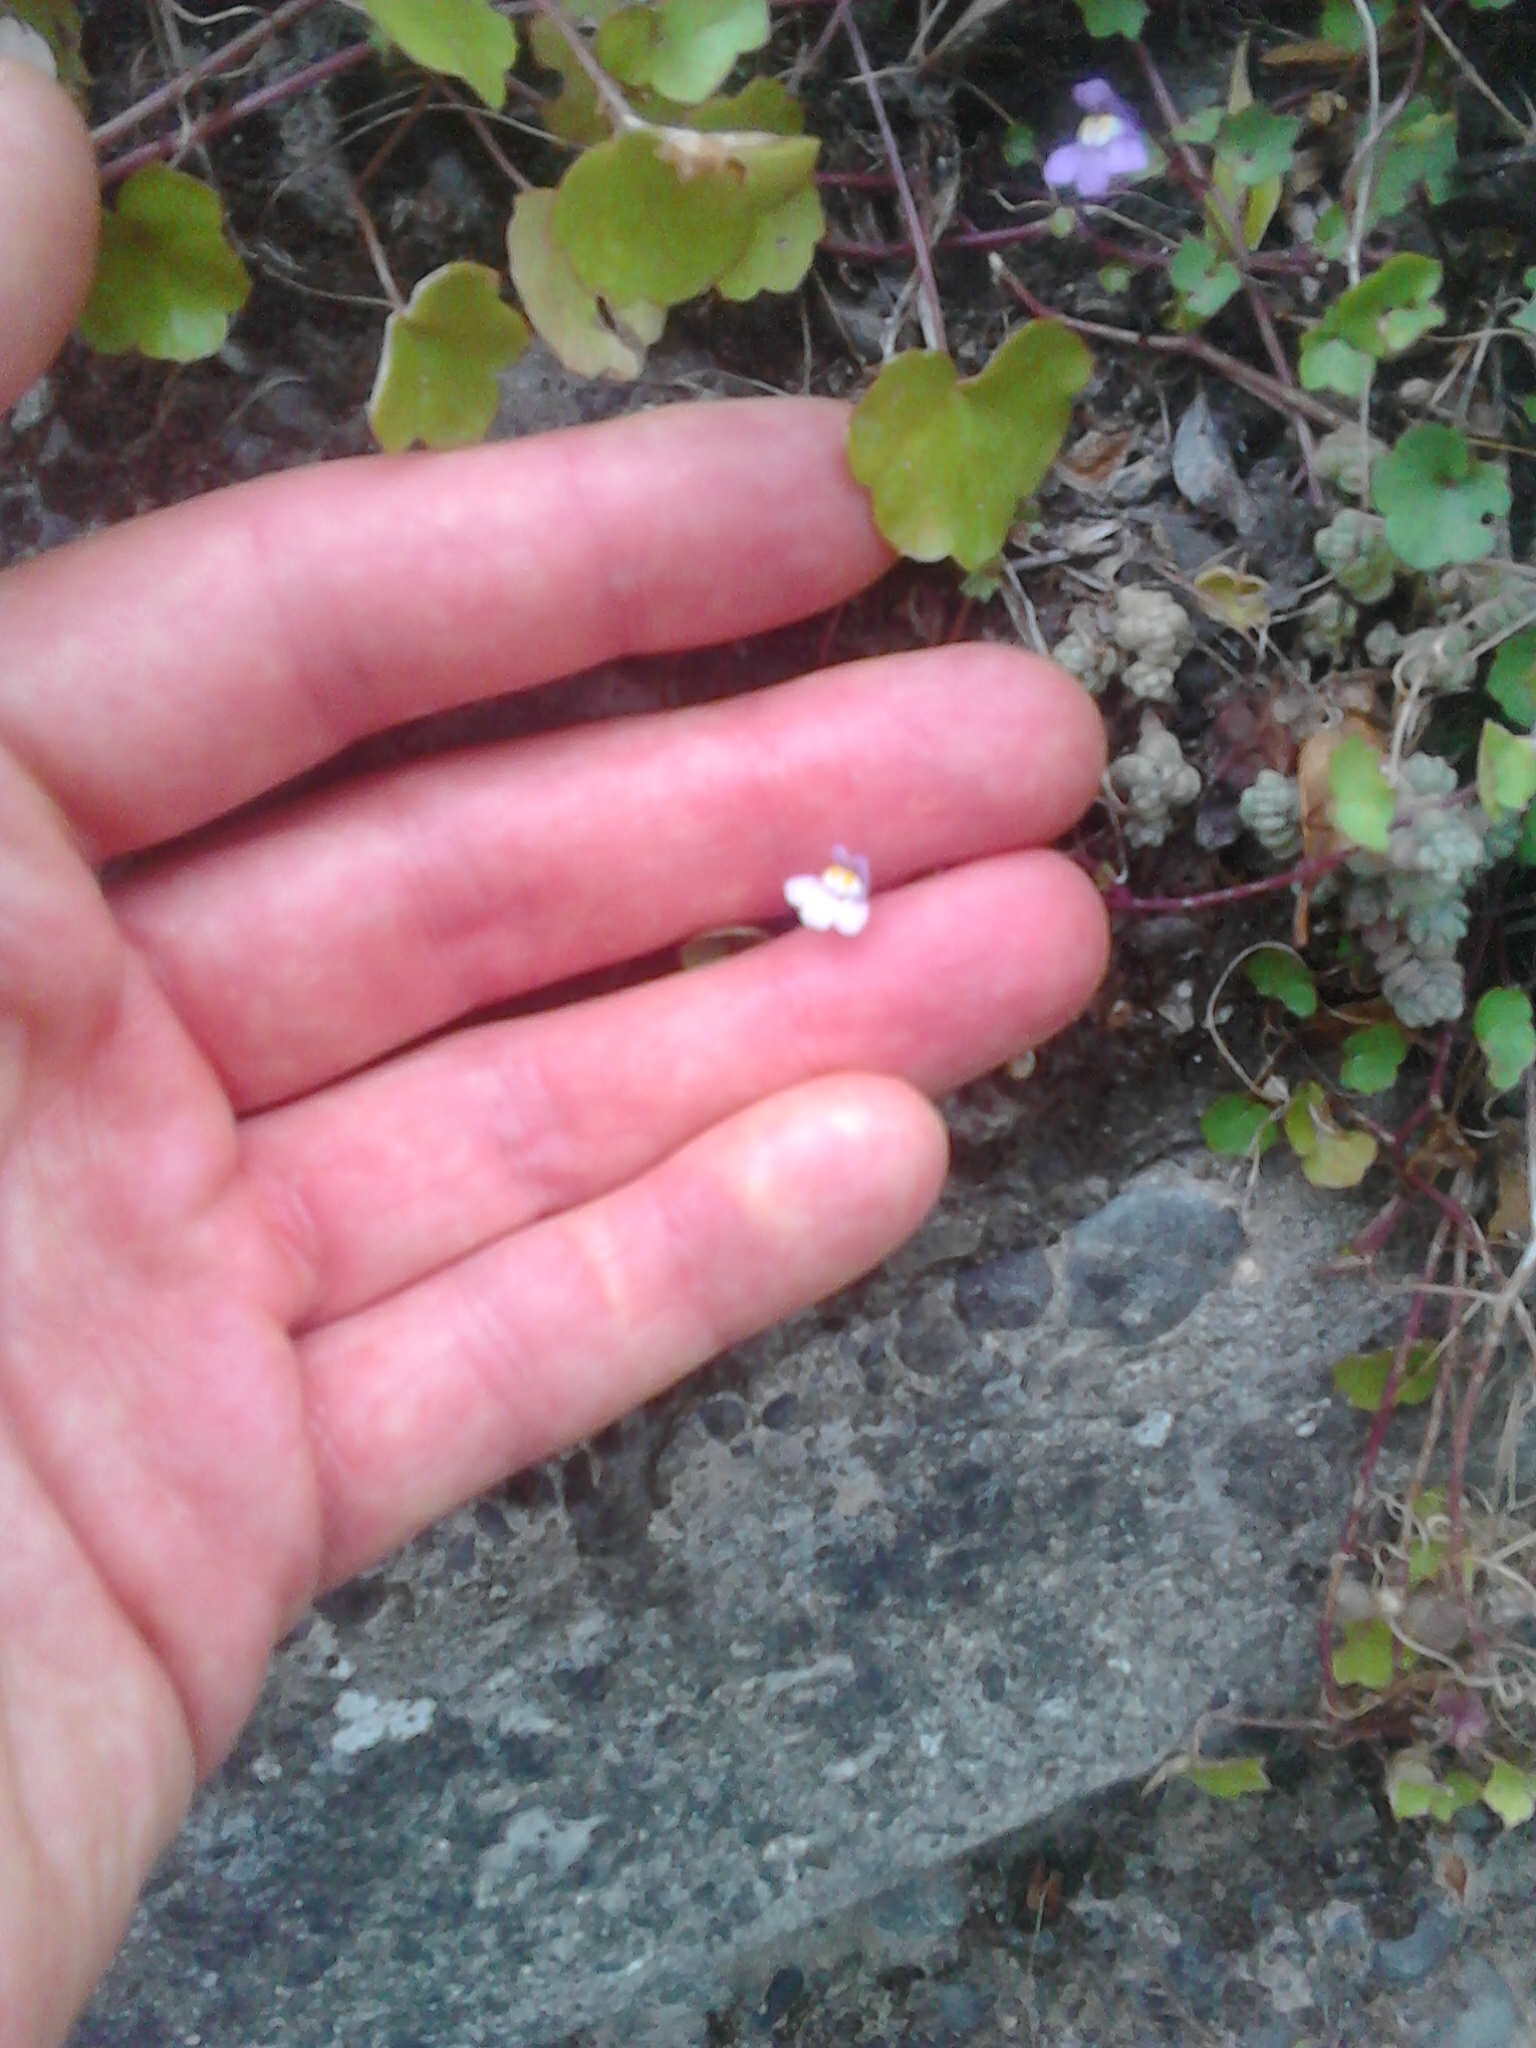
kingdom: Plantae
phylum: Tracheophyta
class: Magnoliopsida
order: Lamiales
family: Plantaginaceae
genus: Cymbalaria
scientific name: Cymbalaria muralis
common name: Ivy-leaved toadflax
